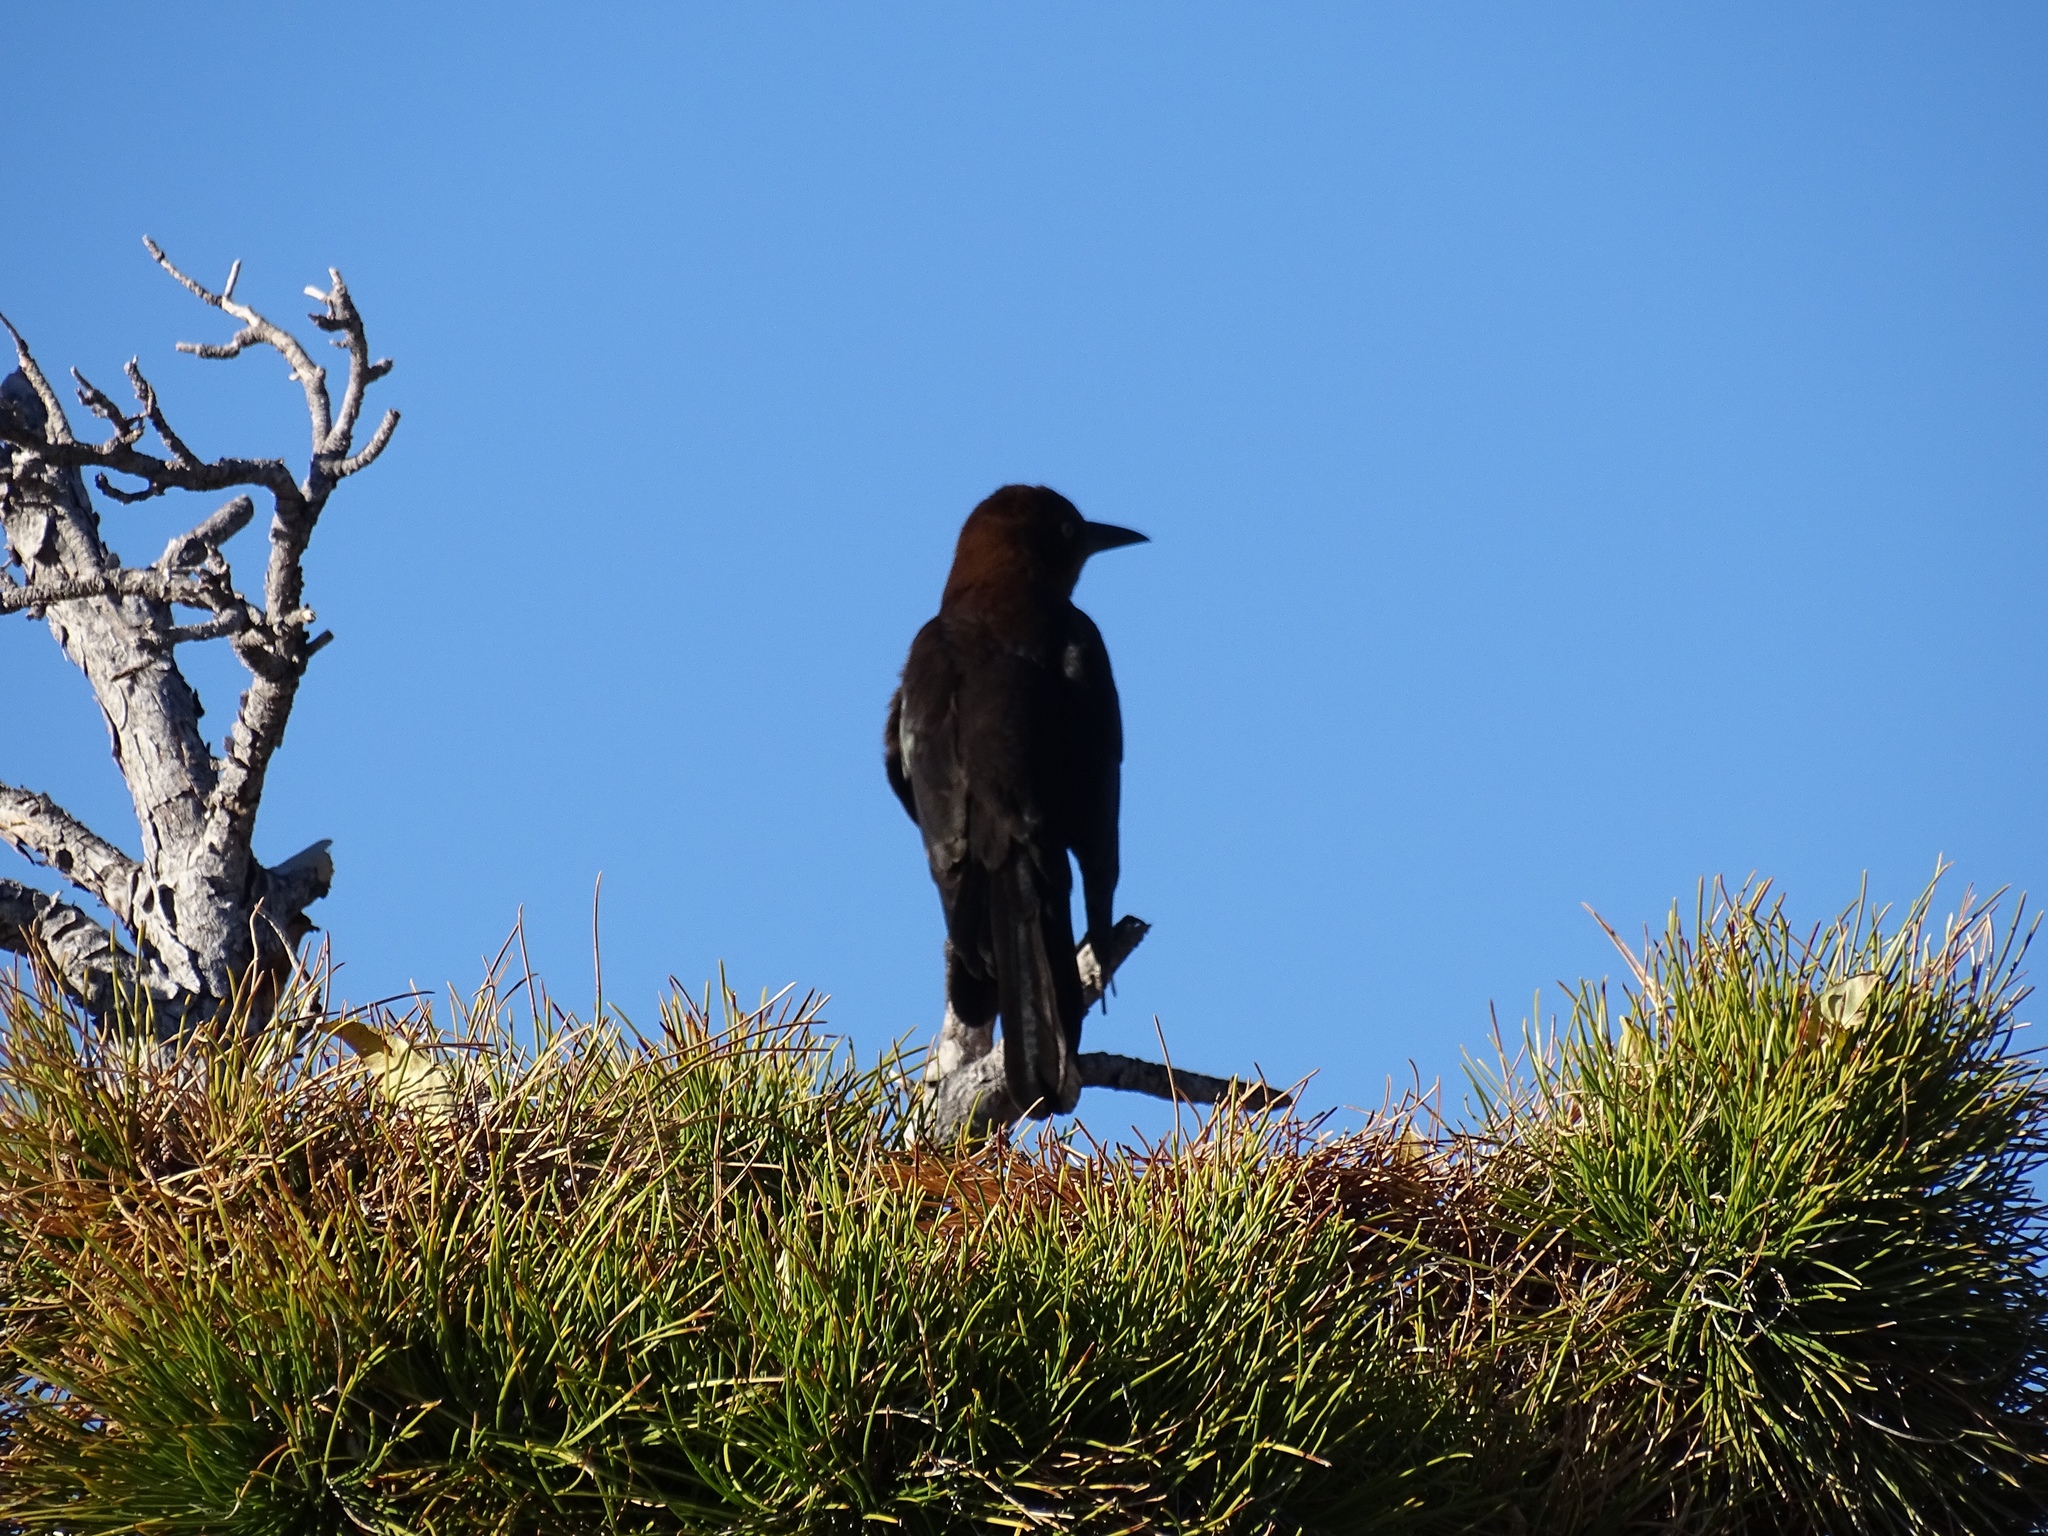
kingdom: Animalia
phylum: Chordata
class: Aves
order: Passeriformes
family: Icteridae
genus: Quiscalus
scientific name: Quiscalus mexicanus
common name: Great-tailed grackle
